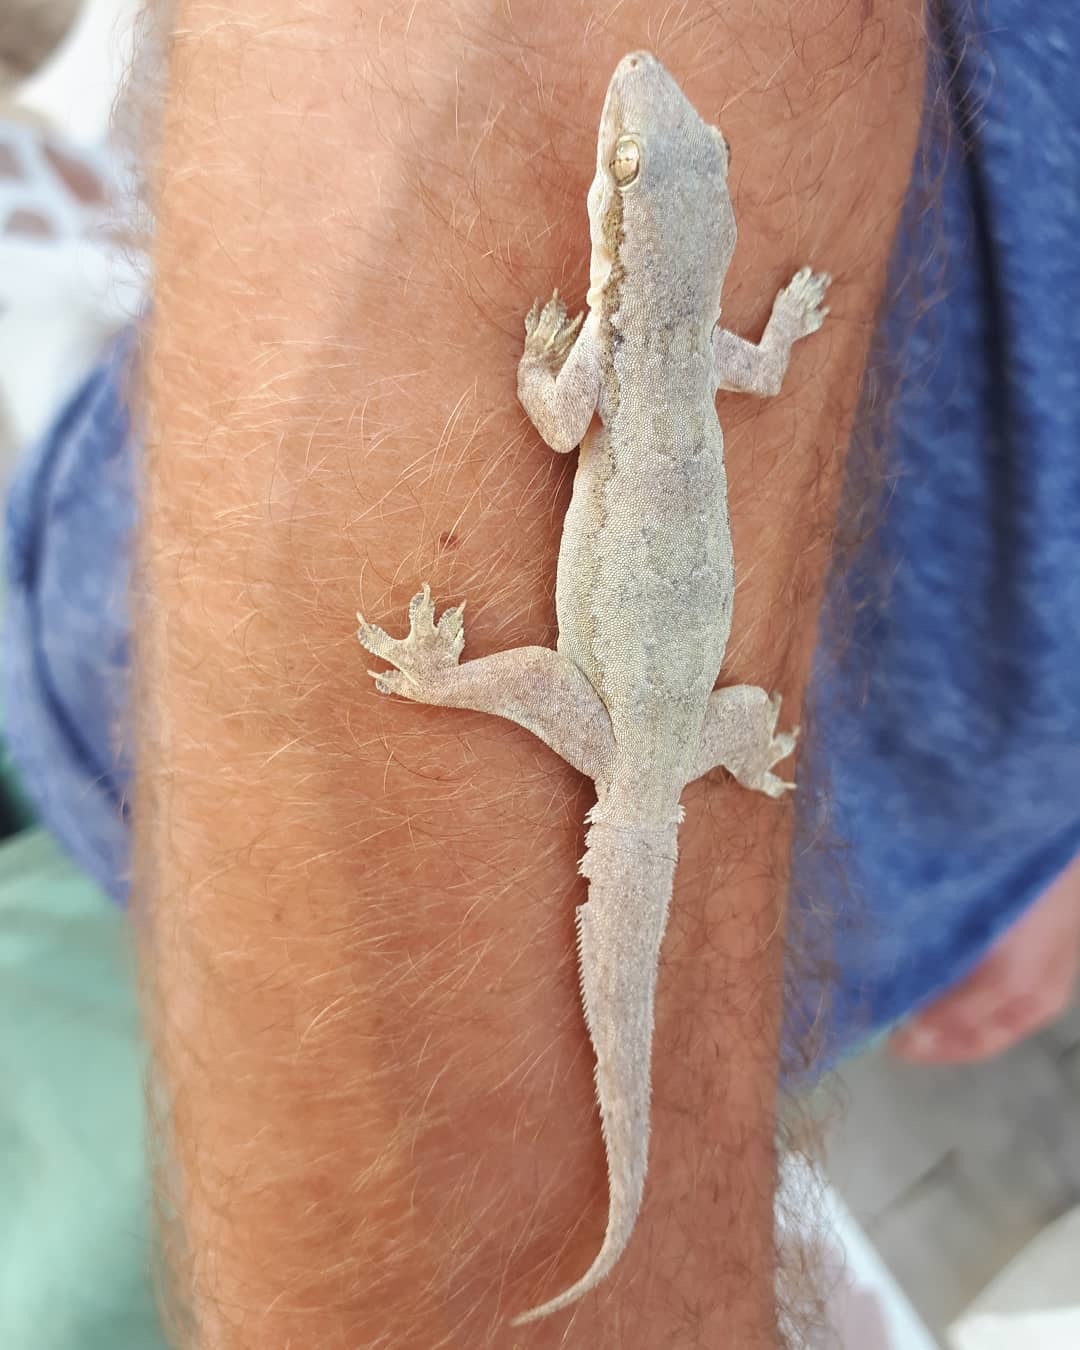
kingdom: Animalia
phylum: Chordata
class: Squamata
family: Gekkonidae
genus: Hemidactylus
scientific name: Hemidactylus platyurus
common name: Flat-tailed house gecko
